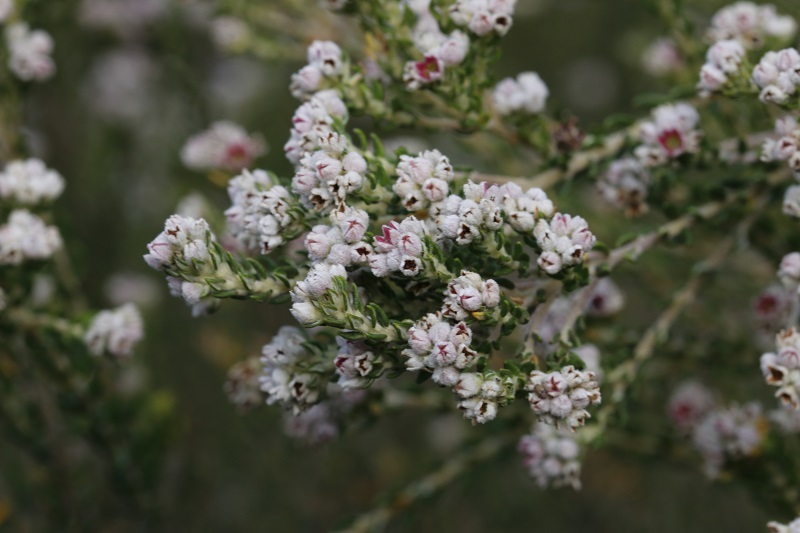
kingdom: Plantae
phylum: Tracheophyta
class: Magnoliopsida
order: Rosales
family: Rhamnaceae
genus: Phylica
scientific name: Phylica purpurea
